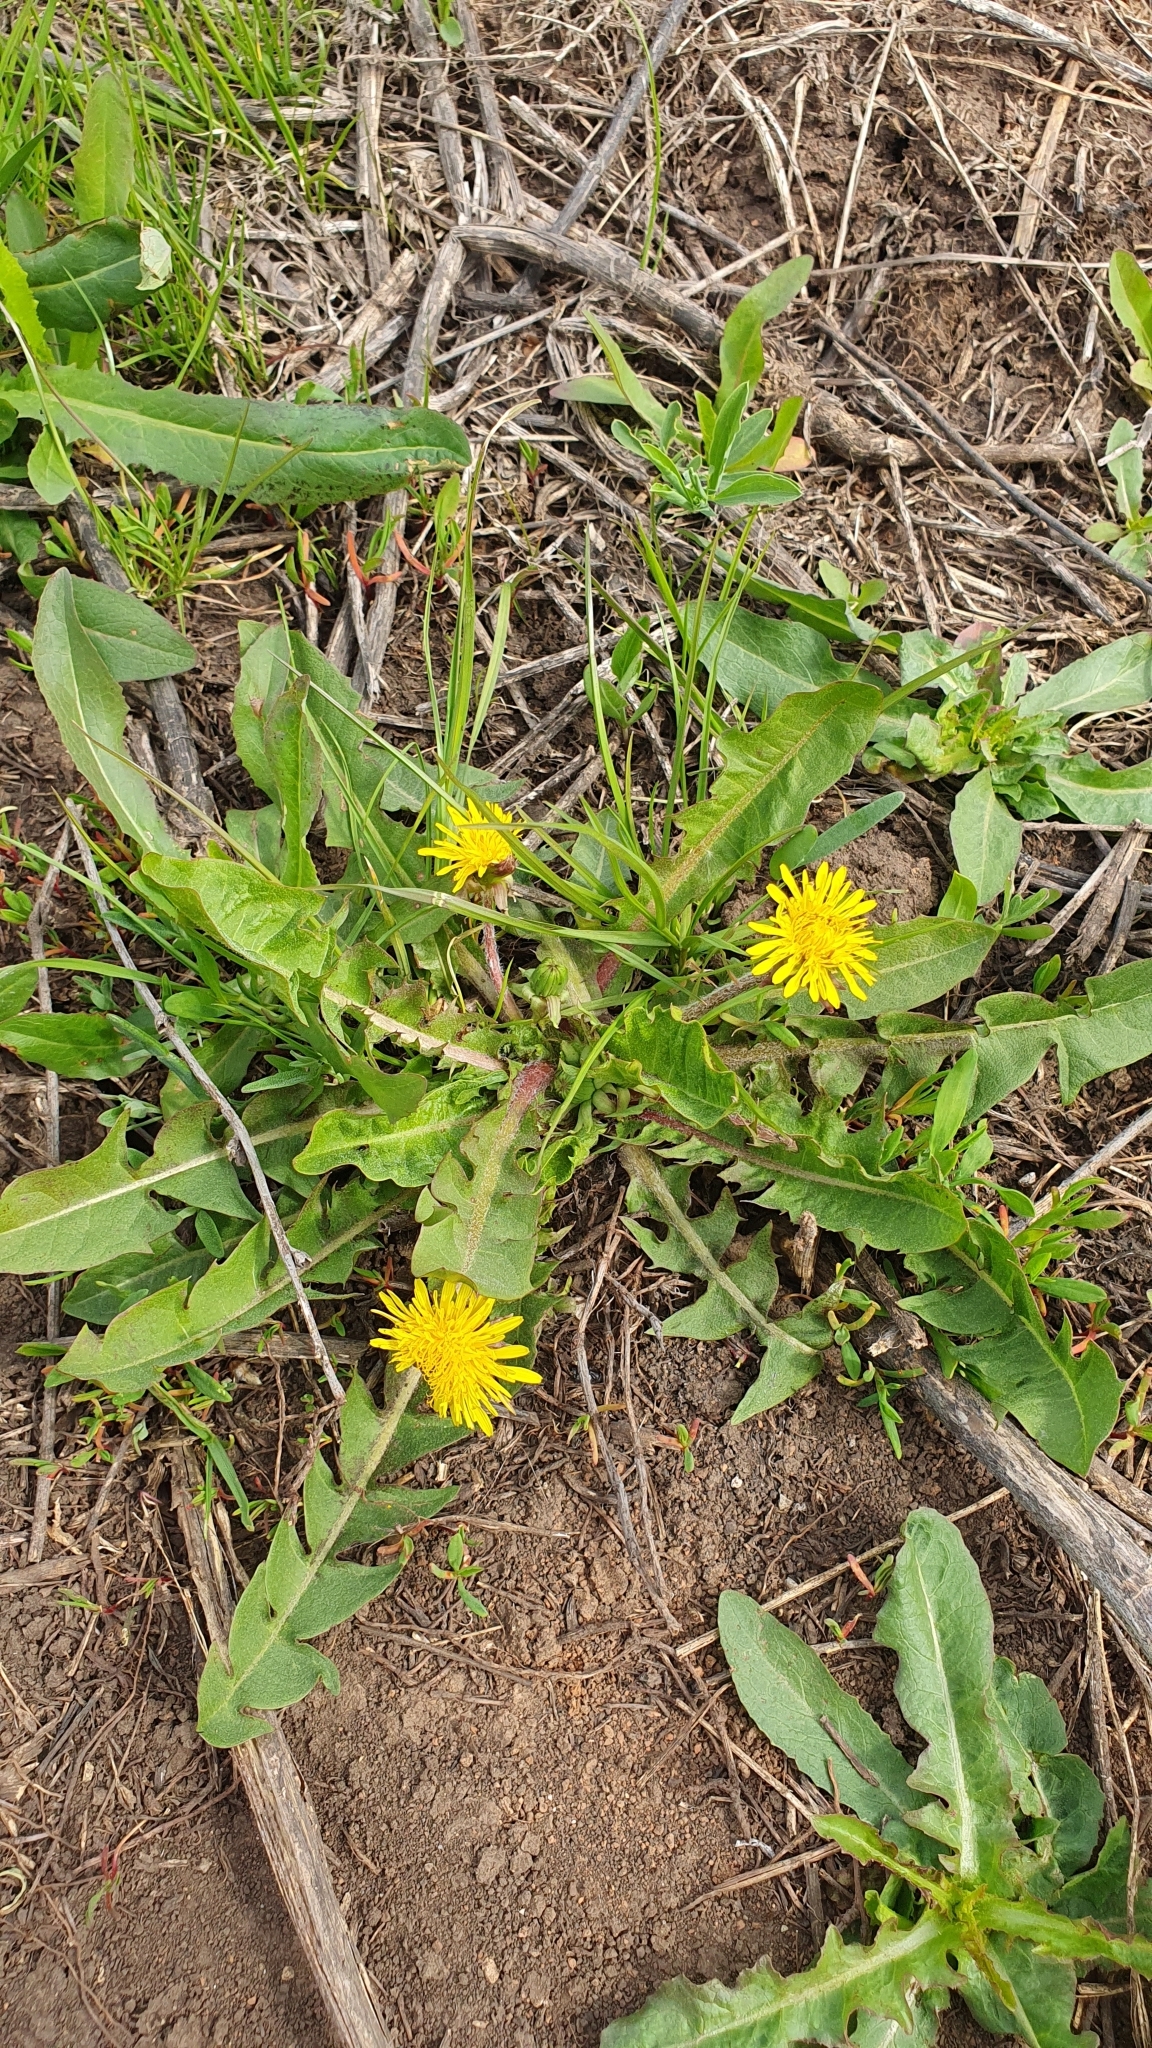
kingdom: Plantae
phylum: Tracheophyta
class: Magnoliopsida
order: Asterales
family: Asteraceae
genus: Taraxacum
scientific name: Taraxacum officinale
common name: Common dandelion
